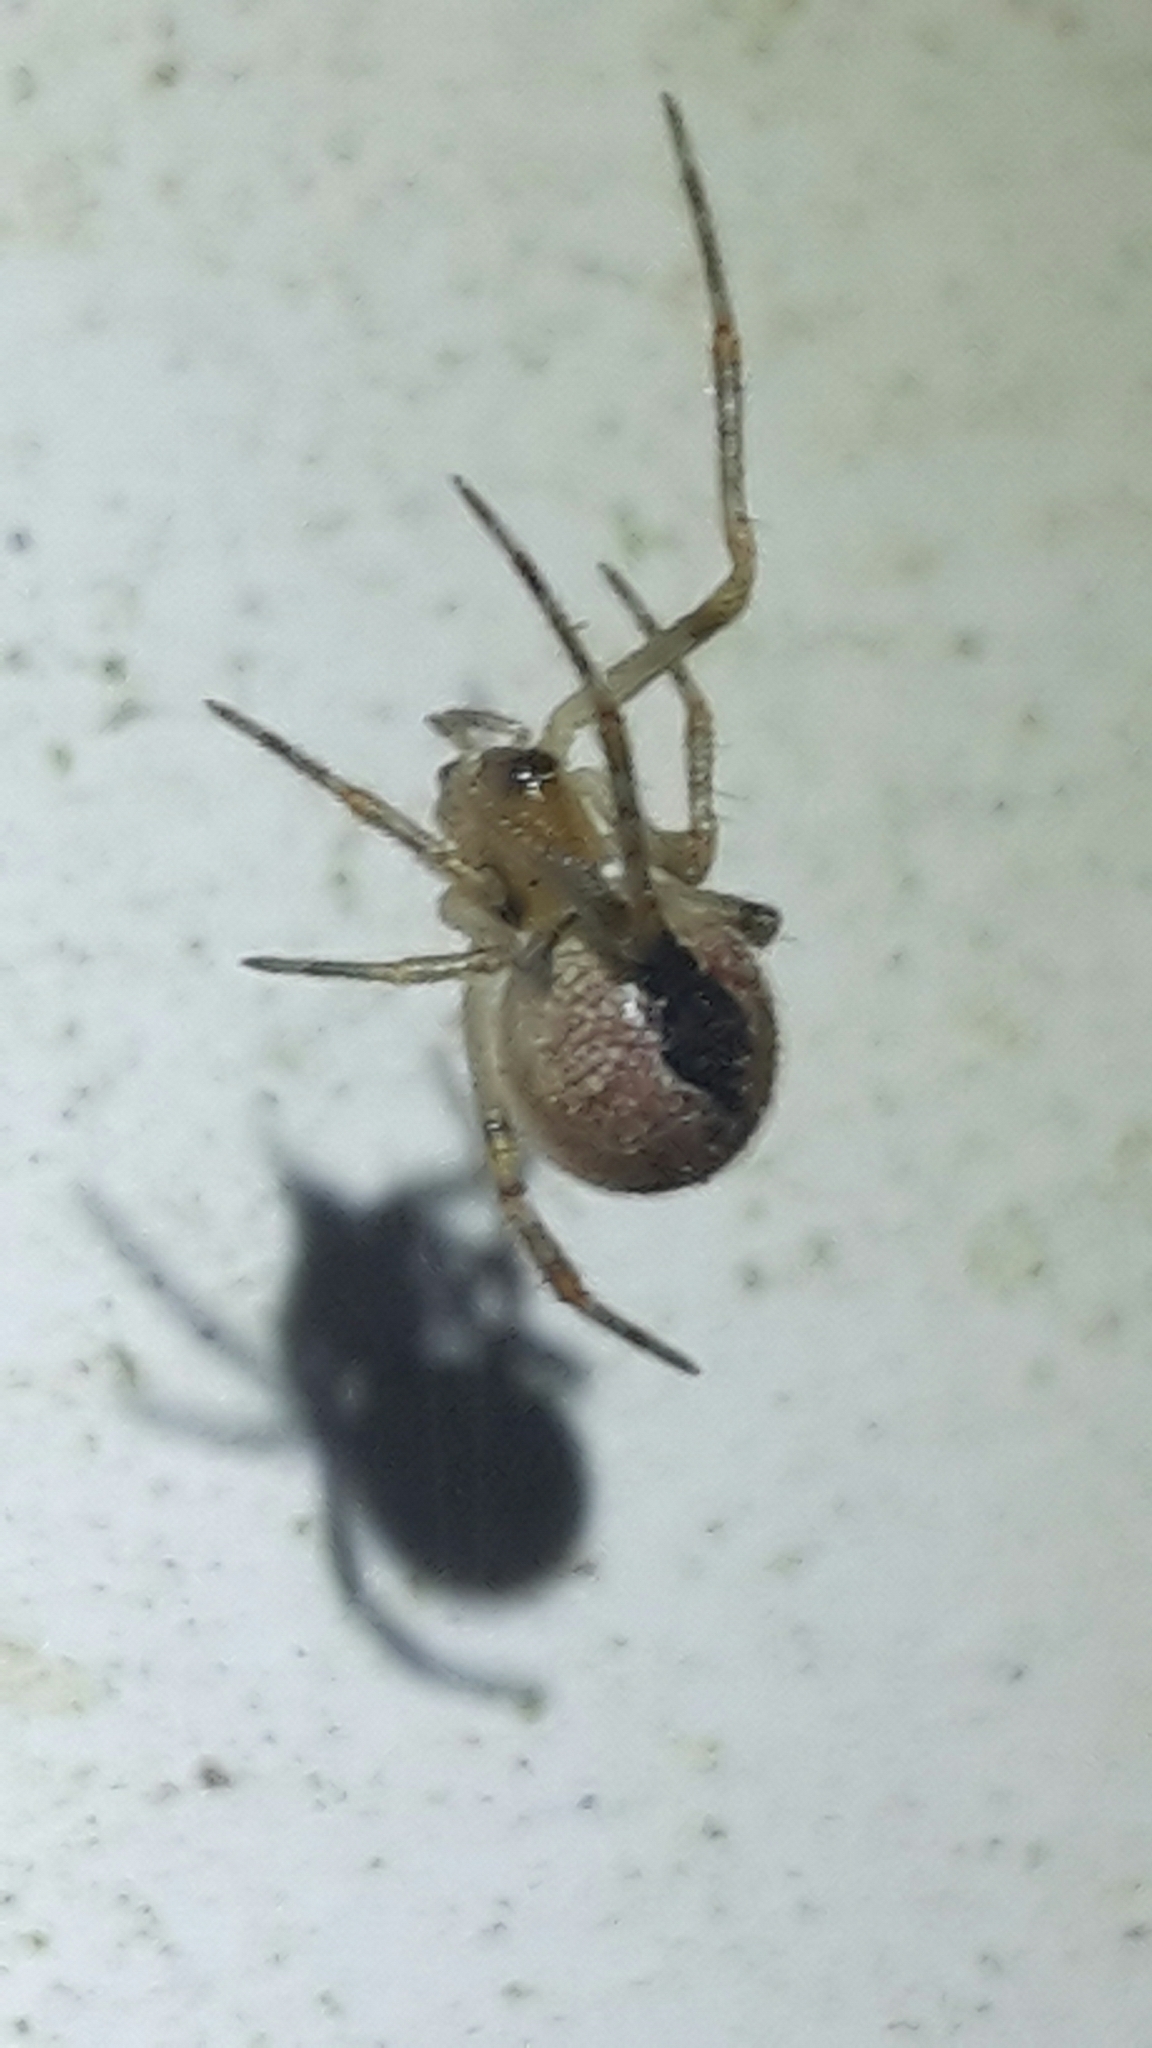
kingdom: Animalia
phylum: Arthropoda
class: Arachnida
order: Araneae
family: Theridiidae
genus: Cryptachaea
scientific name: Cryptachaea veruculata
